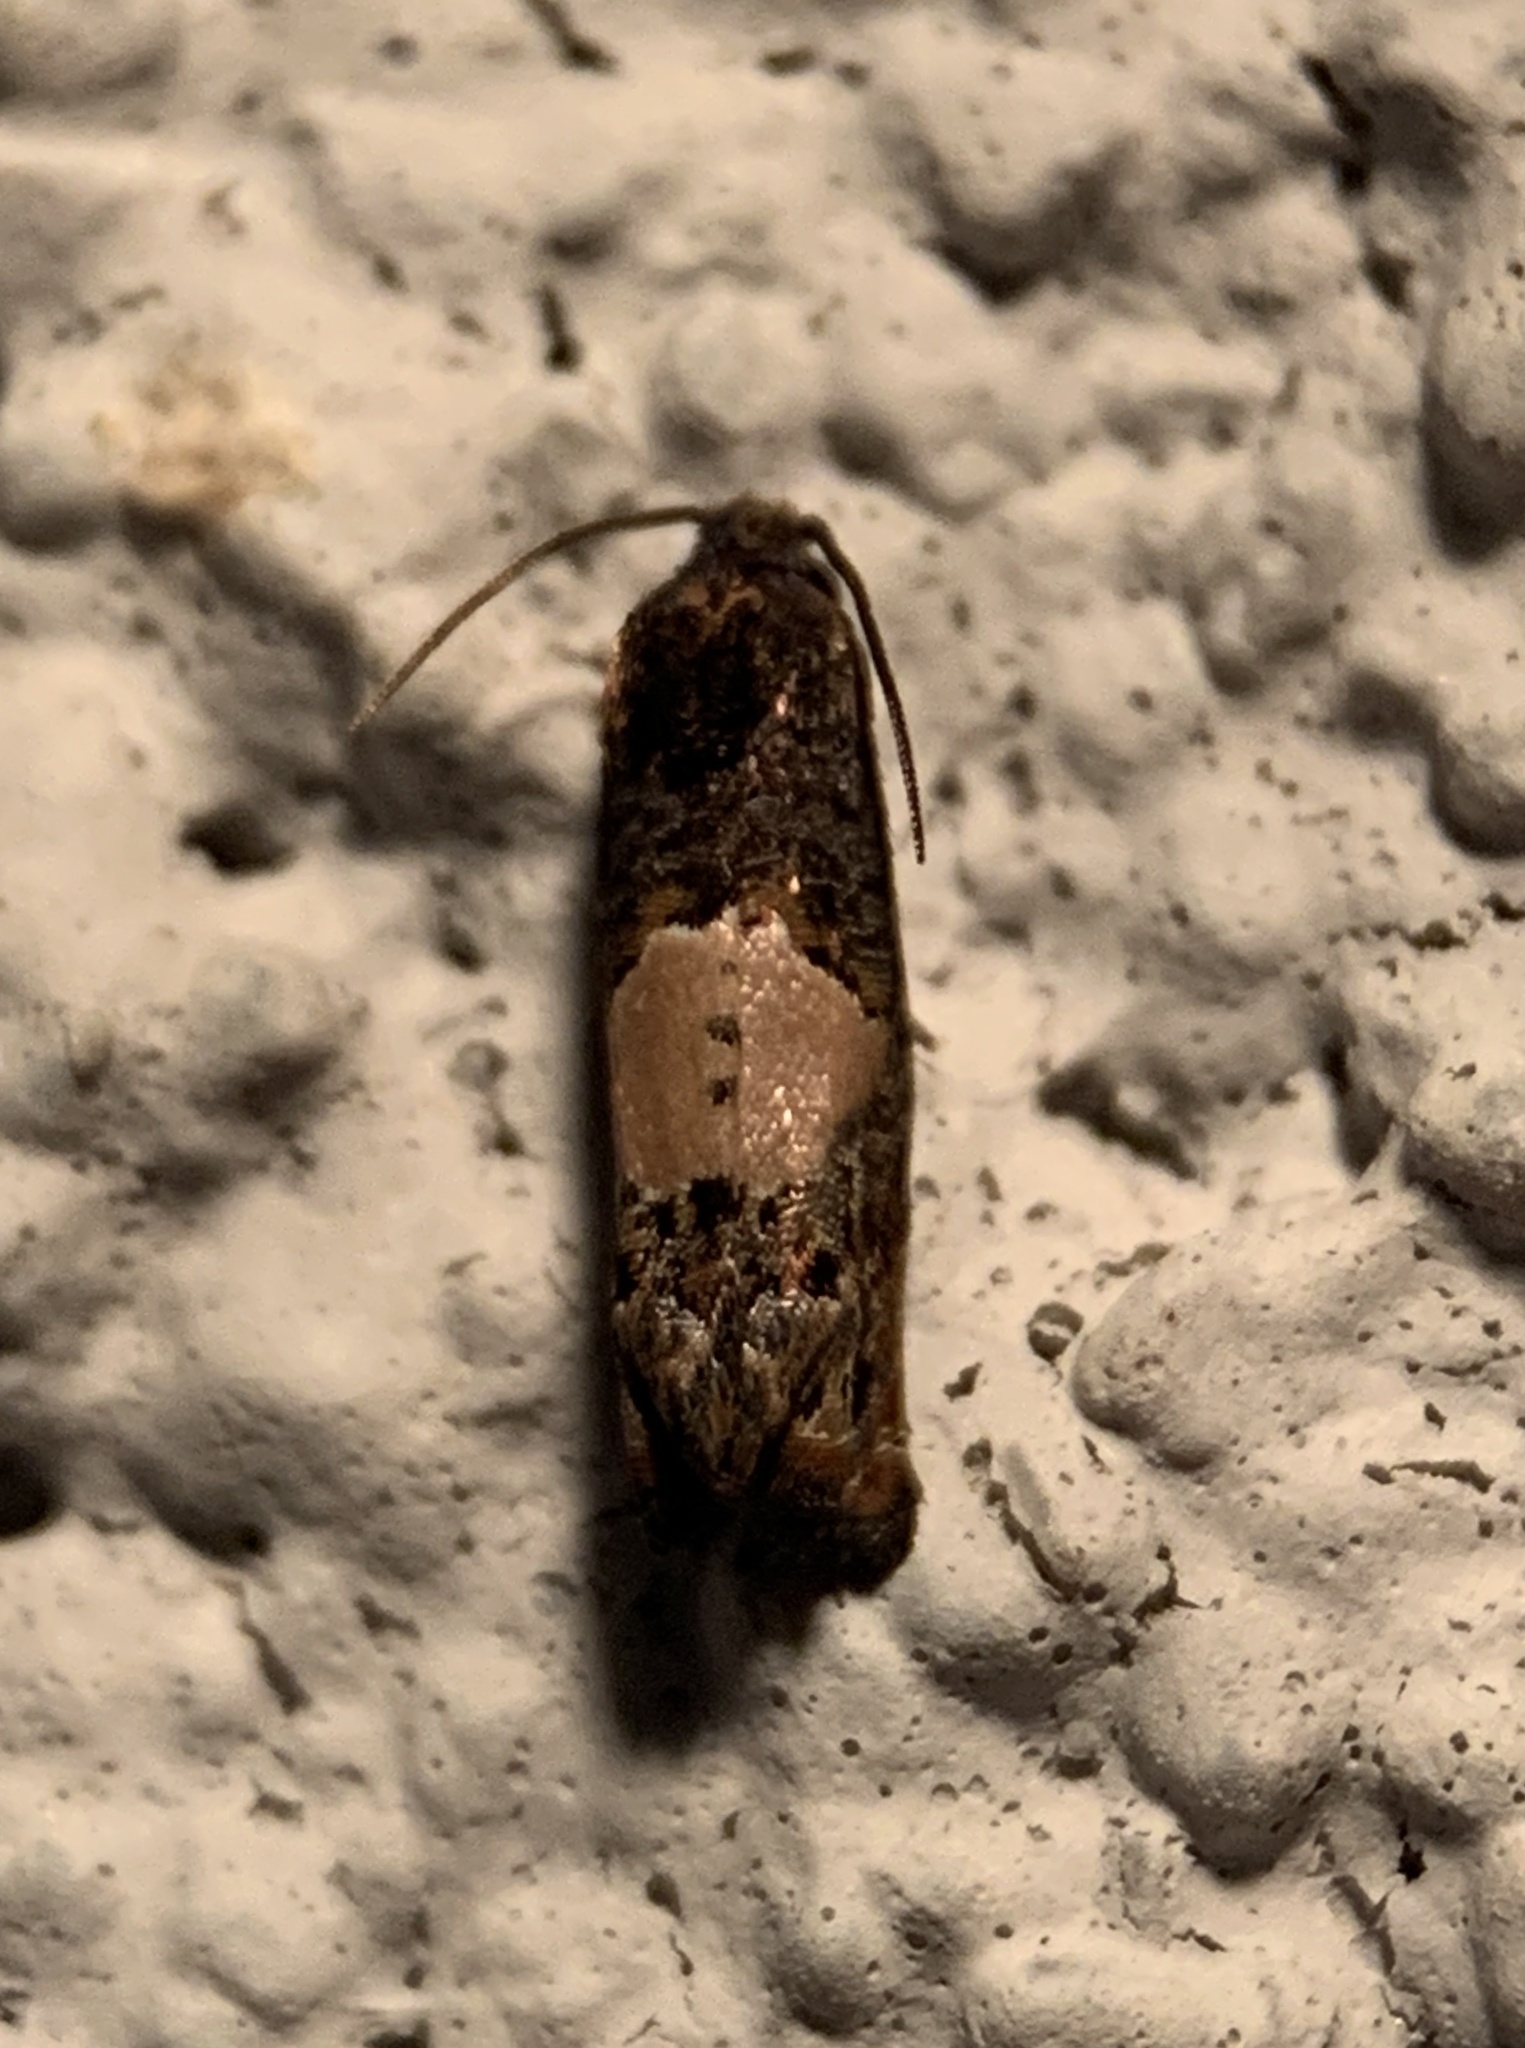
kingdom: Animalia
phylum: Arthropoda
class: Insecta
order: Lepidoptera
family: Tortricidae
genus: Epiblema
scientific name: Epiblema glenni
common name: Glenn's epiblema
